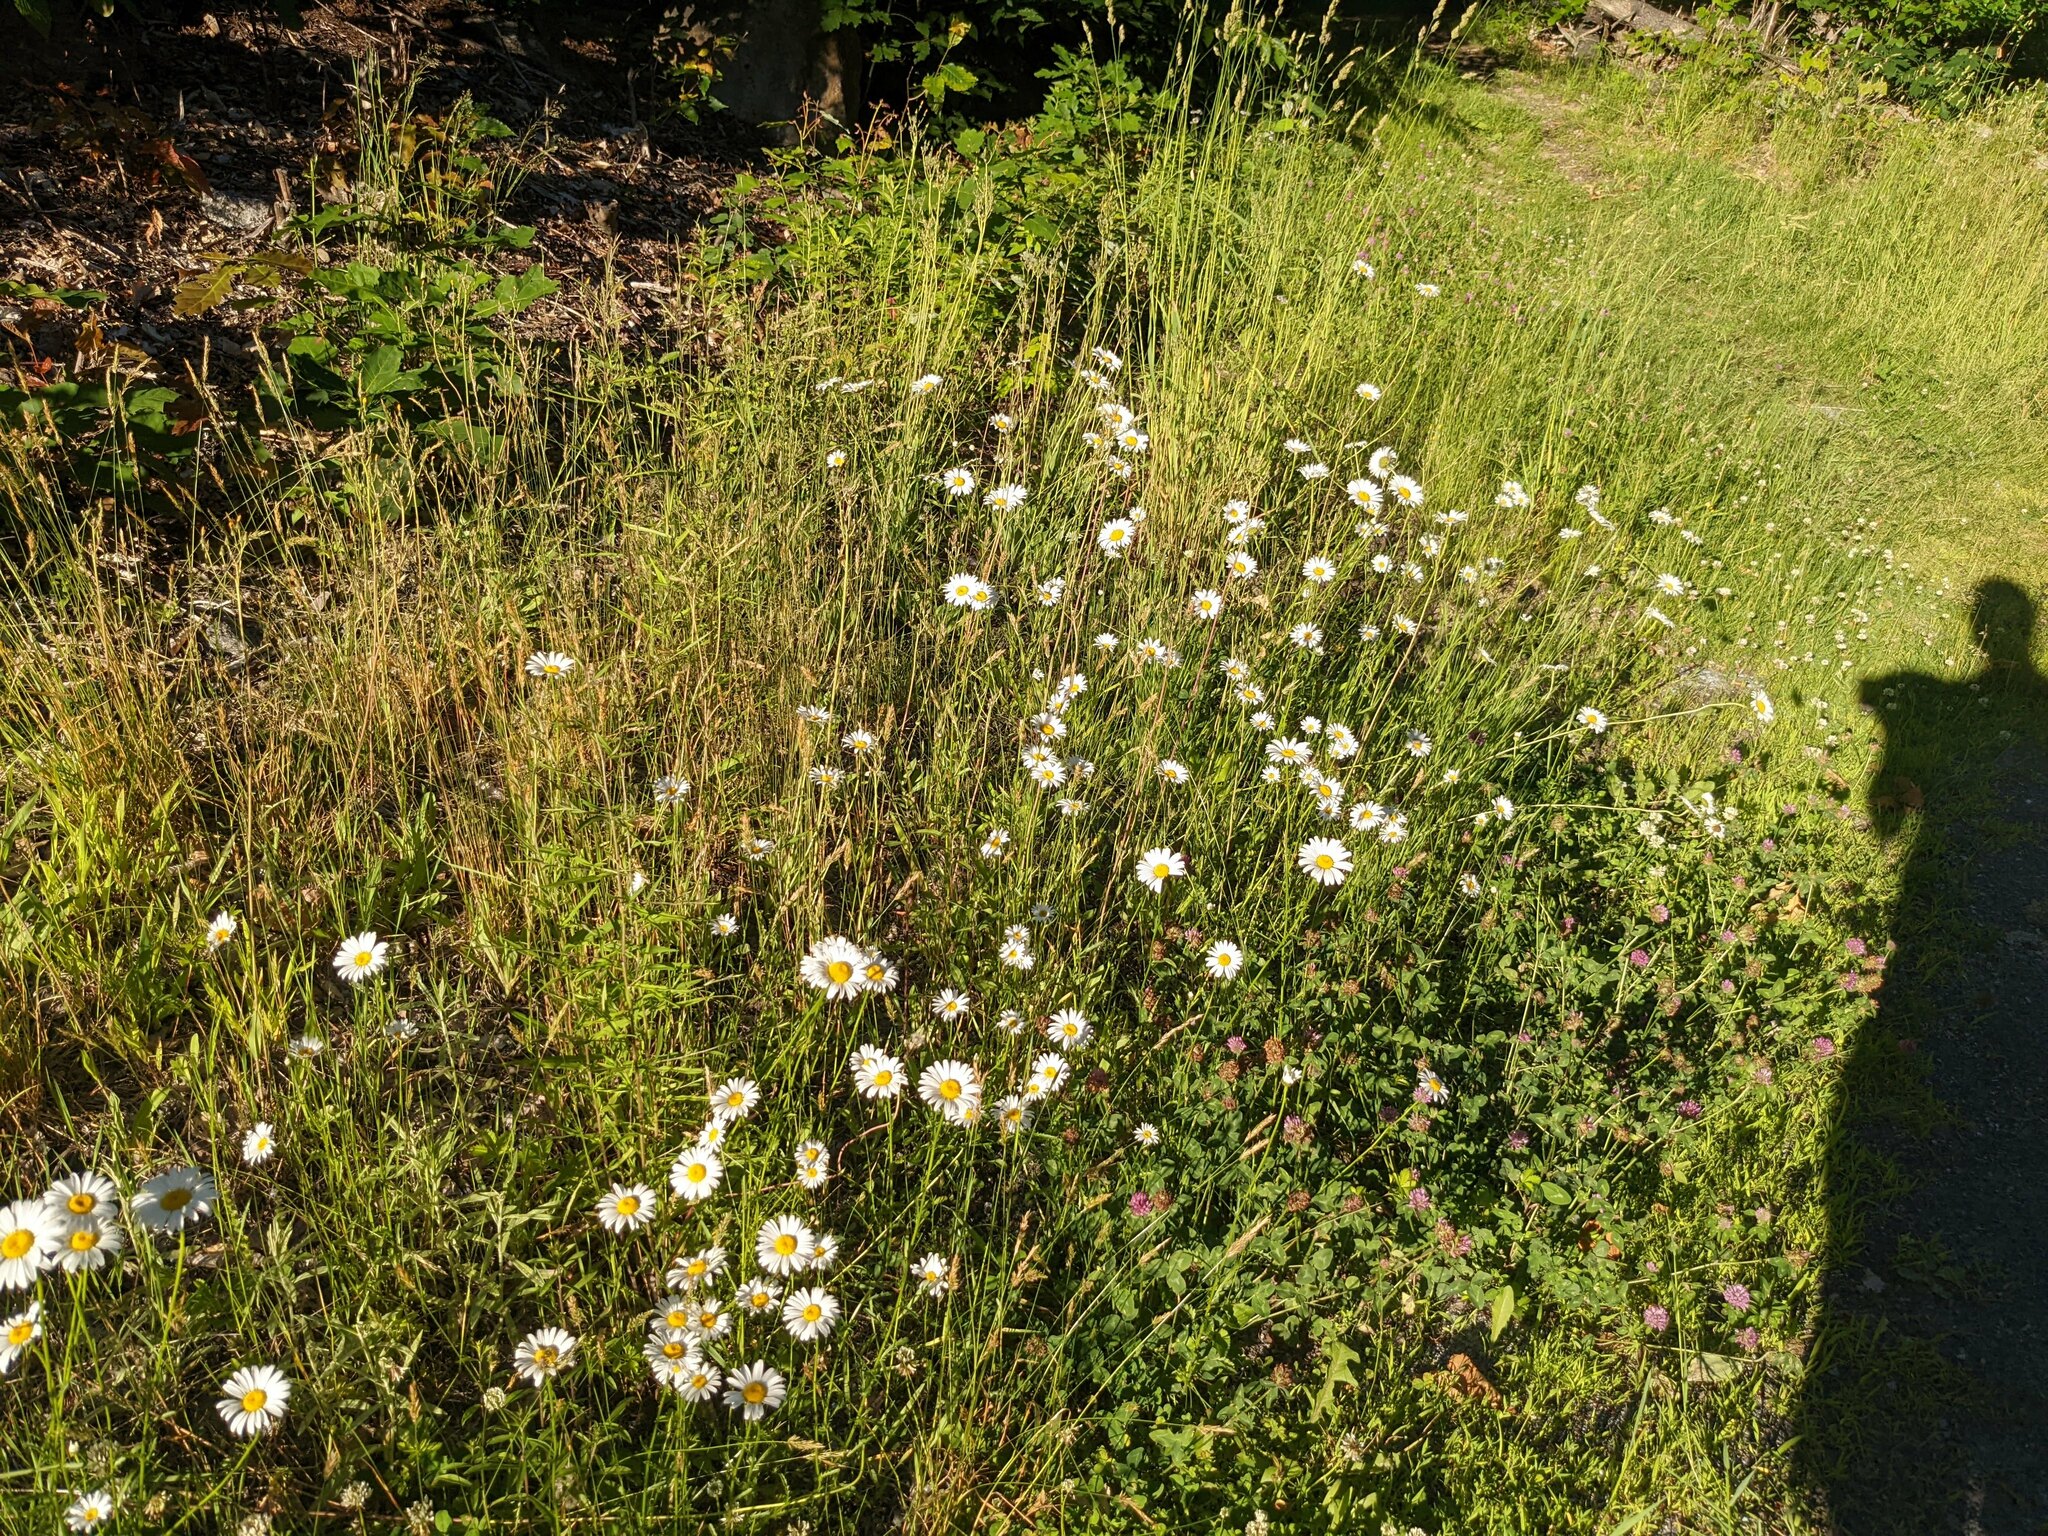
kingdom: Plantae
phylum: Tracheophyta
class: Magnoliopsida
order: Asterales
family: Asteraceae
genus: Leucanthemum
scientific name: Leucanthemum vulgare
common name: Oxeye daisy
